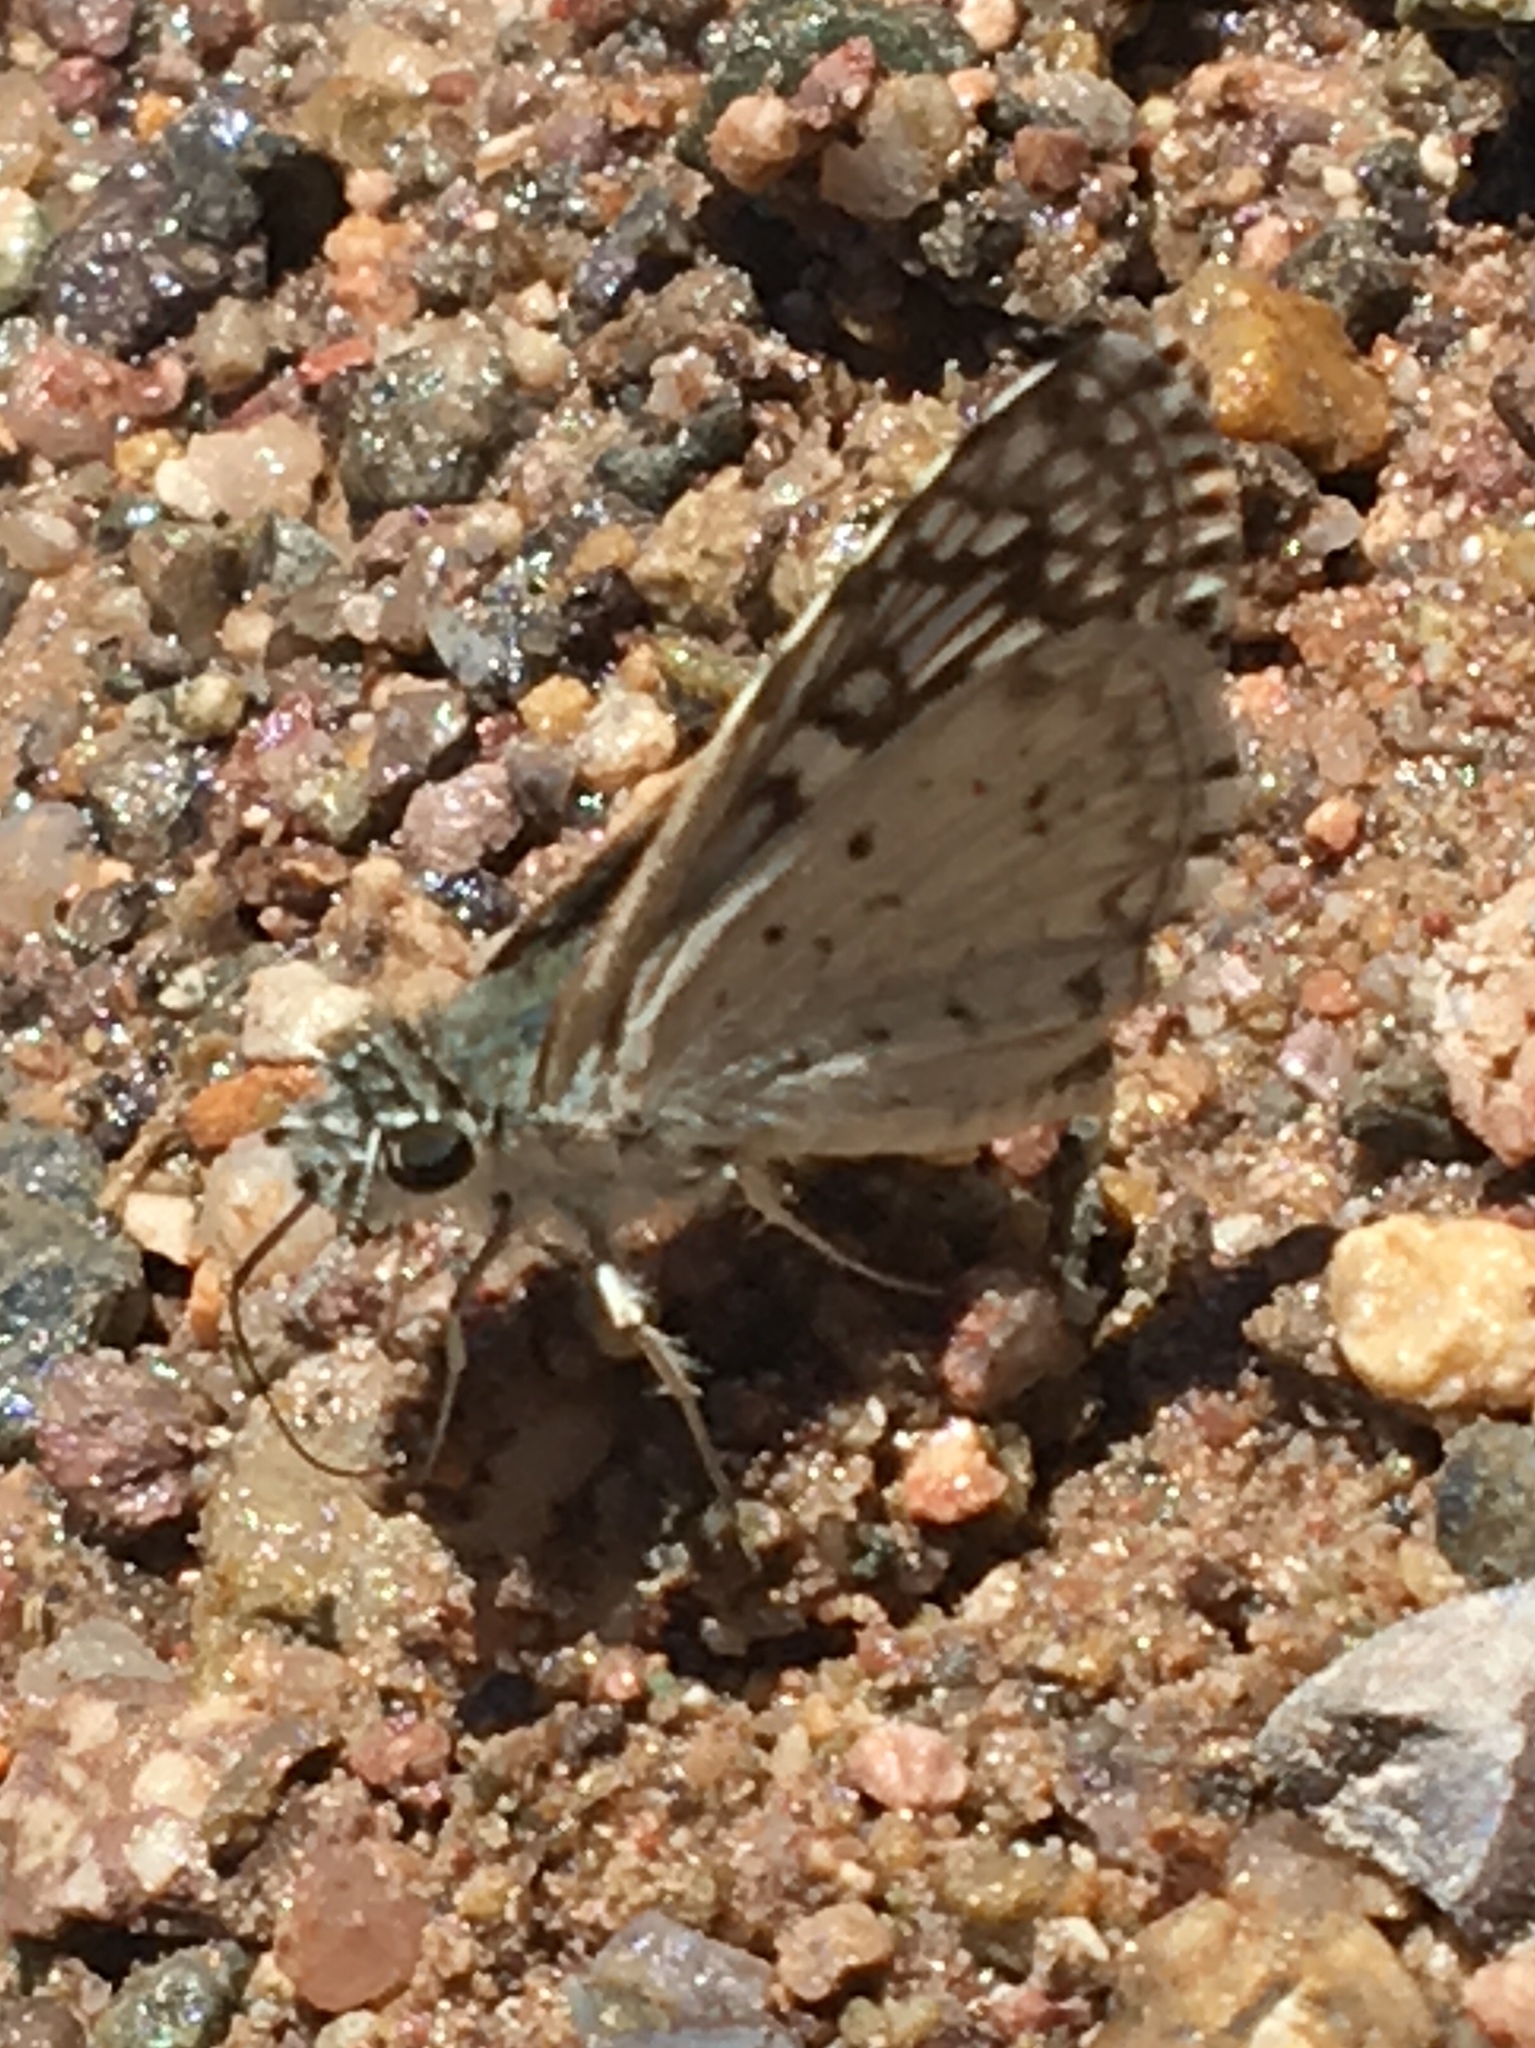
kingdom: Animalia
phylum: Arthropoda
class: Insecta
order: Lepidoptera
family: Hesperiidae
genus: Burnsius
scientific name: Burnsius philetas
